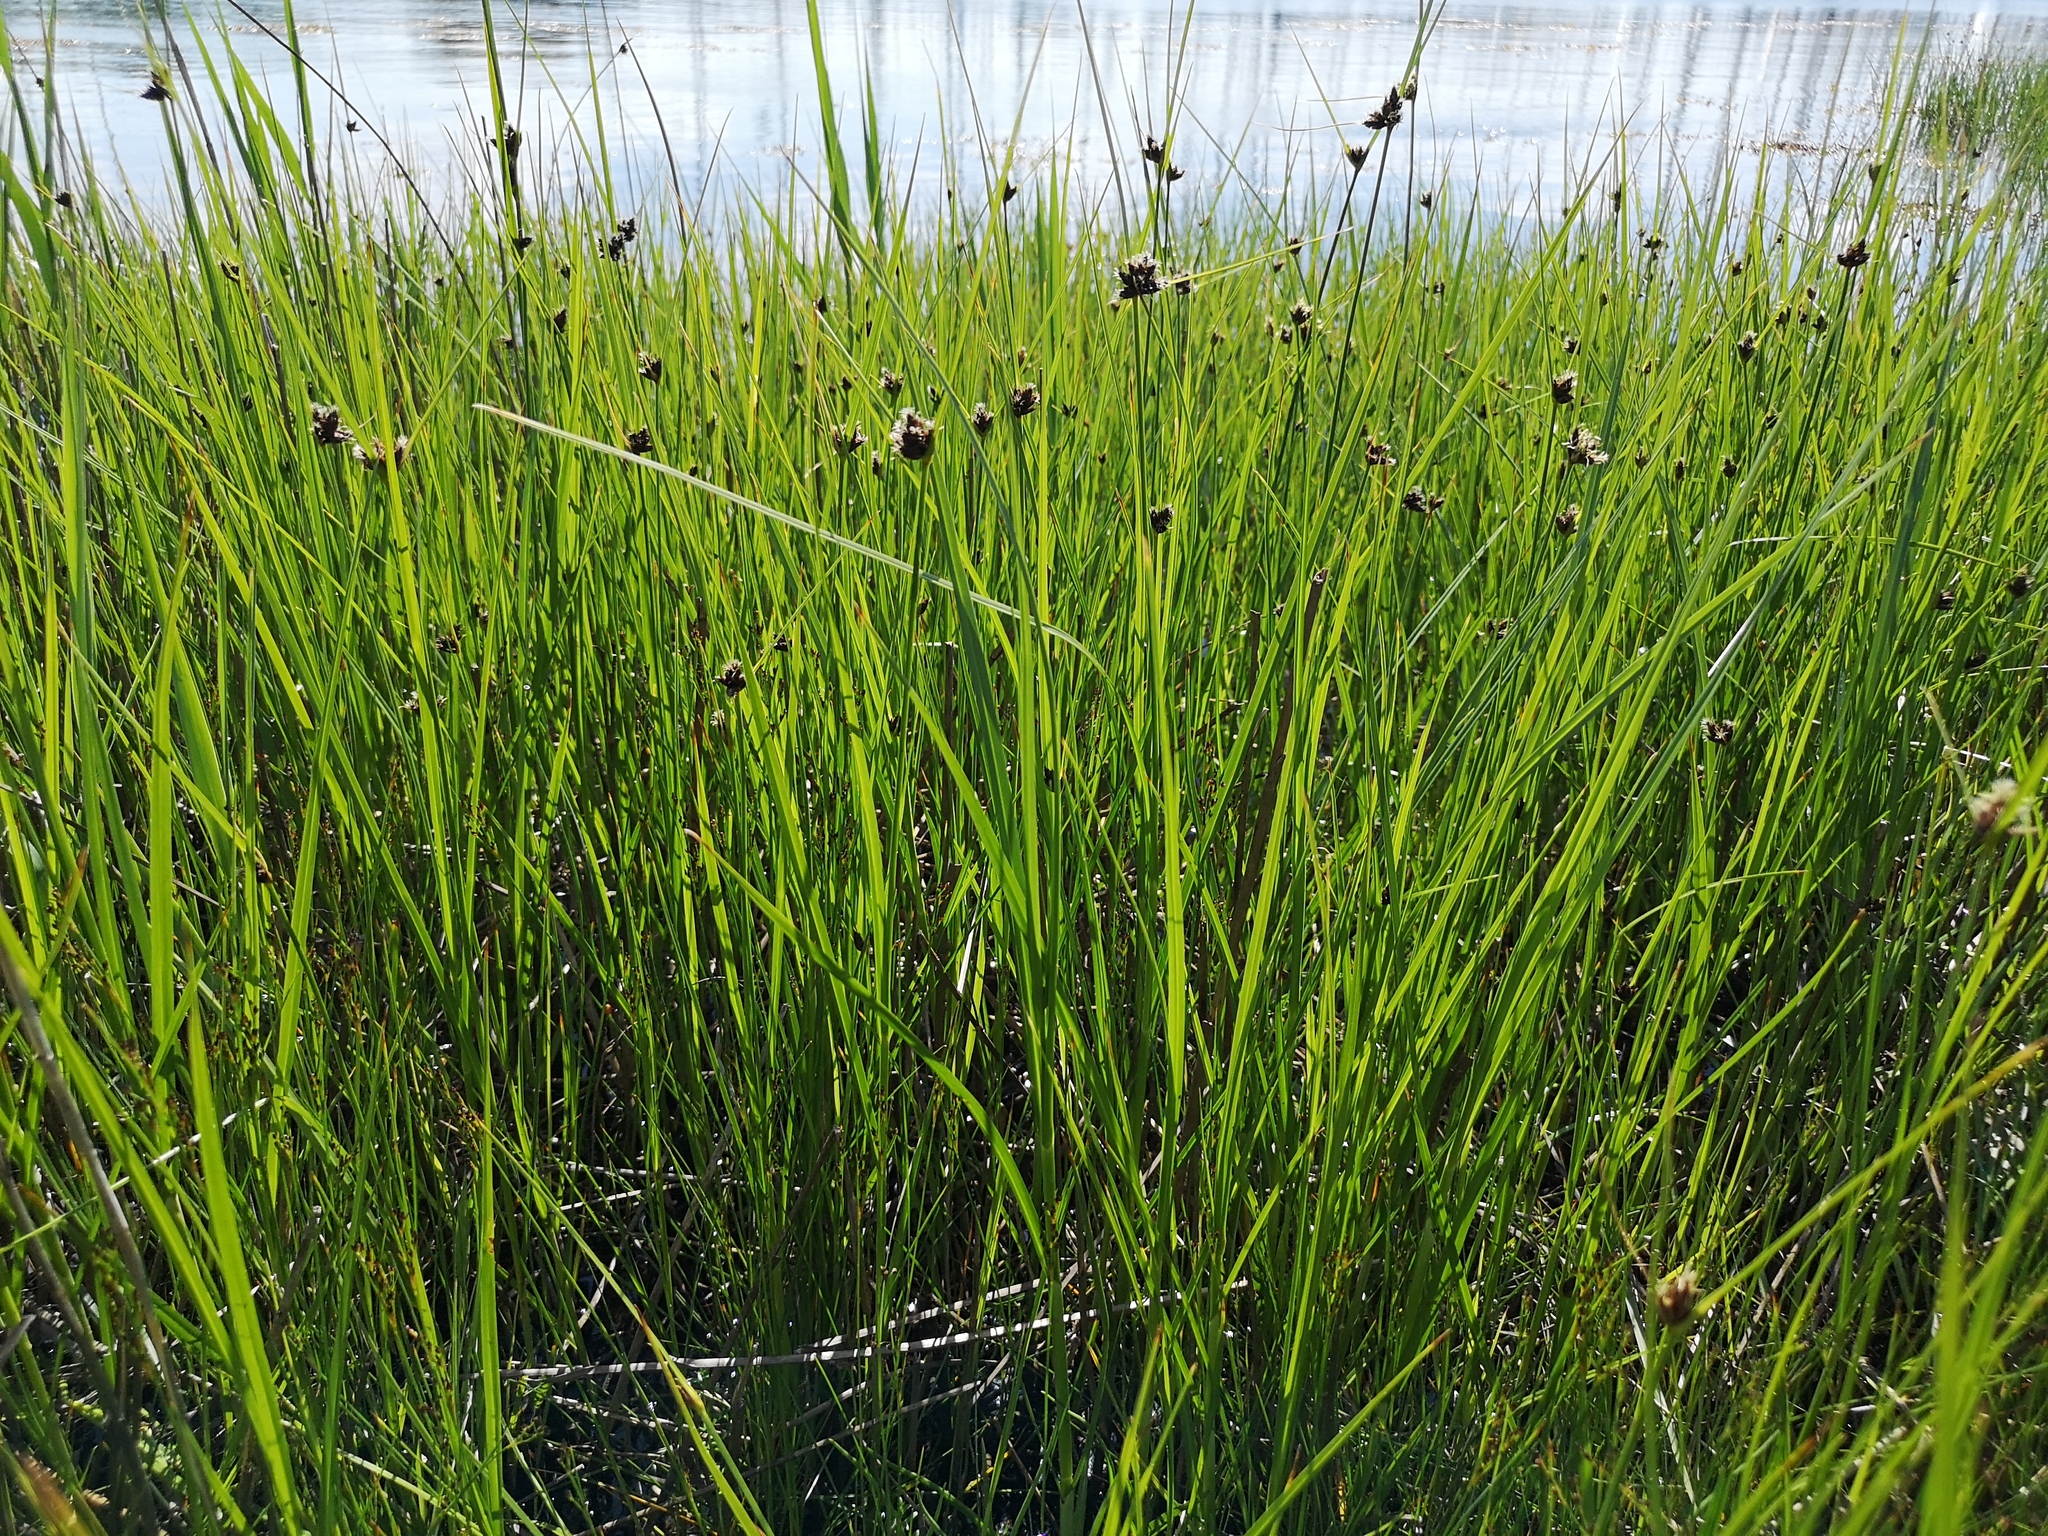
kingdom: Plantae
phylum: Tracheophyta
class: Liliopsida
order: Poales
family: Cyperaceae
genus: Bolboschoenus
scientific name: Bolboschoenus maritimus
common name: Sea club-rush
